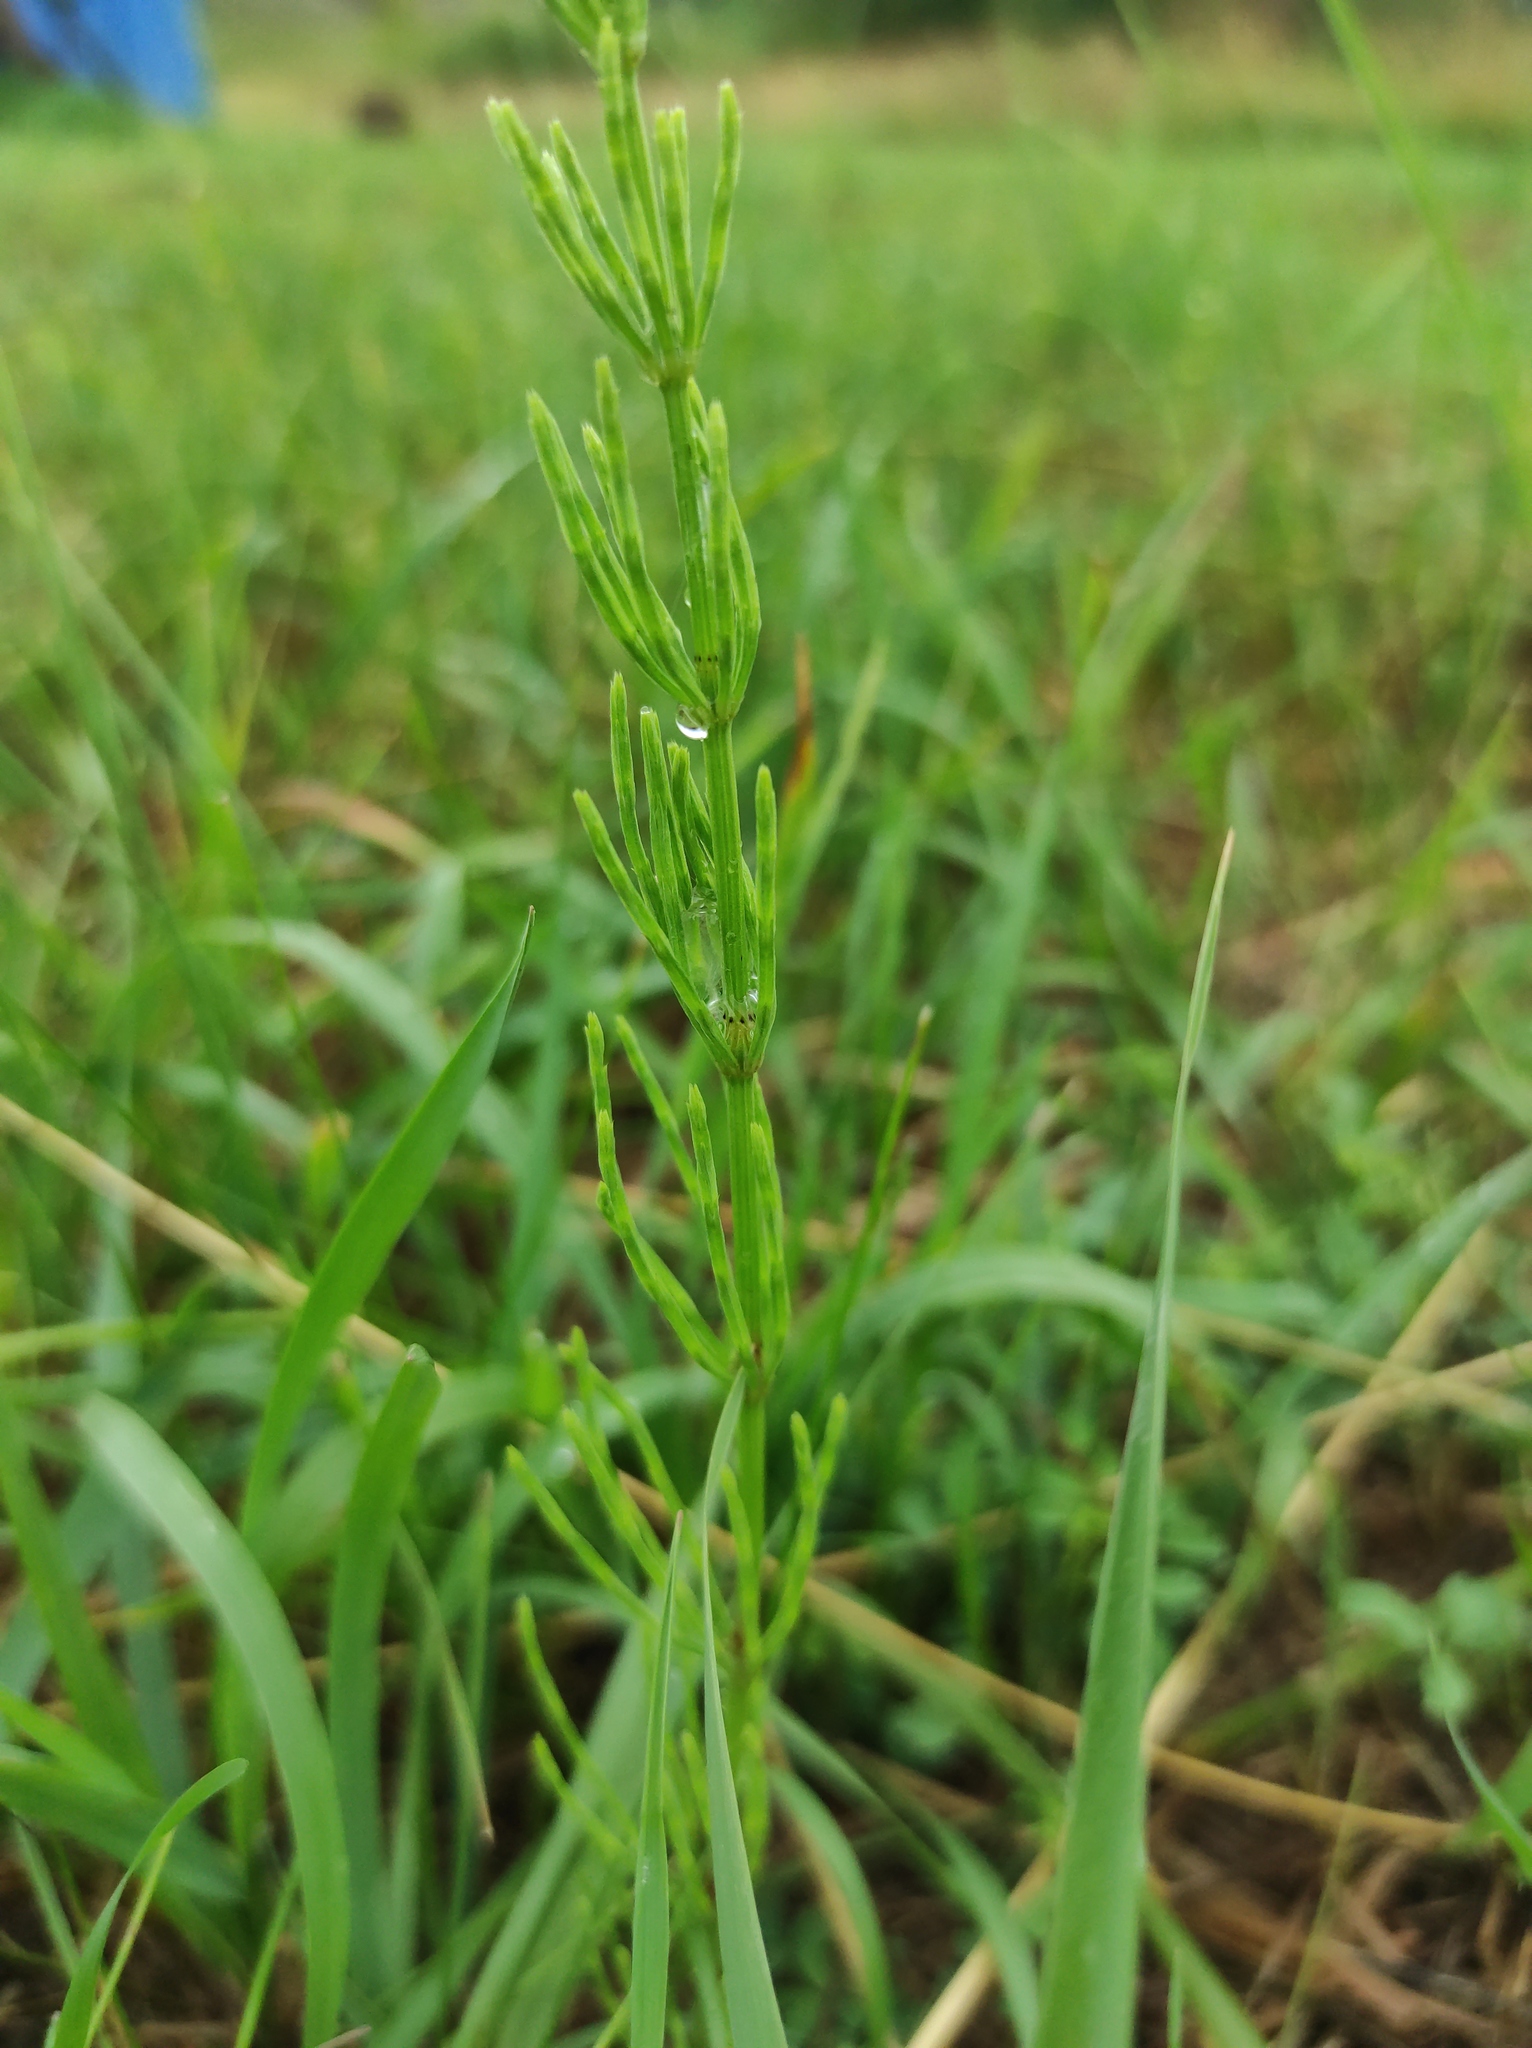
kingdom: Plantae
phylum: Tracheophyta
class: Polypodiopsida
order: Equisetales
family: Equisetaceae
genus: Equisetum
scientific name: Equisetum arvense
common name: Field horsetail
